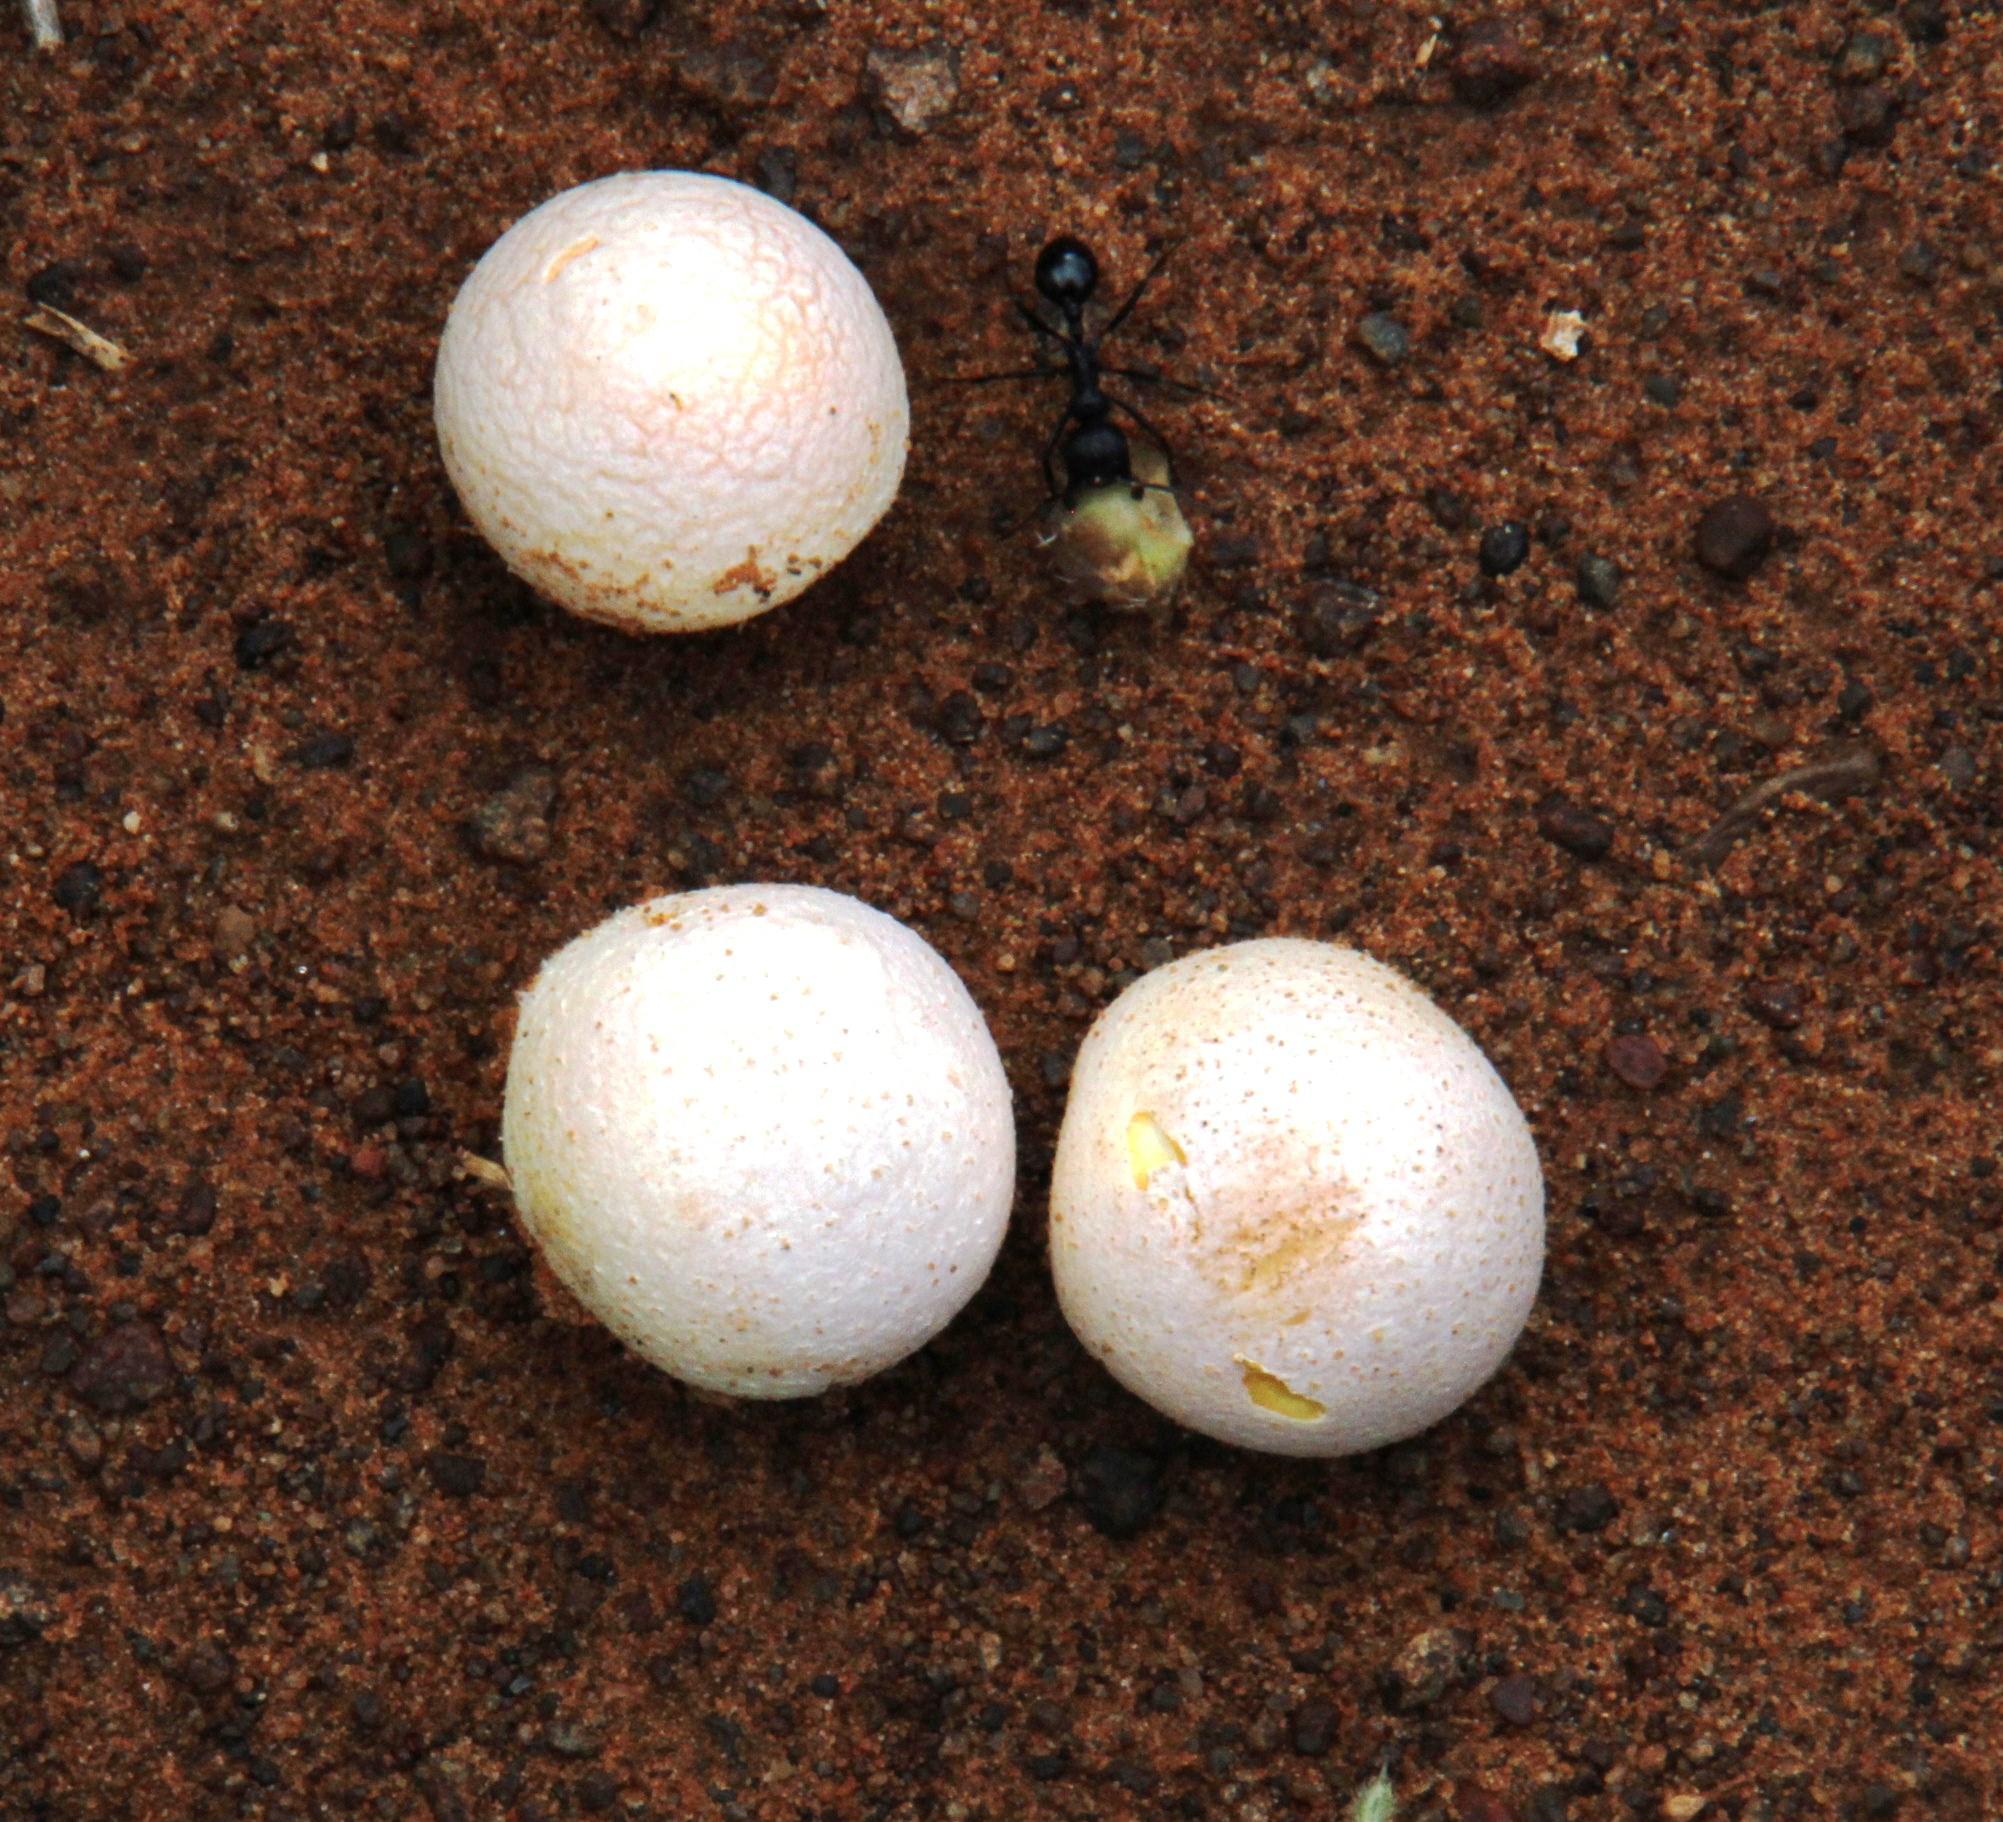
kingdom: Fungi
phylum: Basidiomycota
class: Agaricomycetes
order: Agaricales
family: Lycoperdaceae
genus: Lycoperdon
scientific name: Lycoperdon pratense
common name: Meadow puffball
